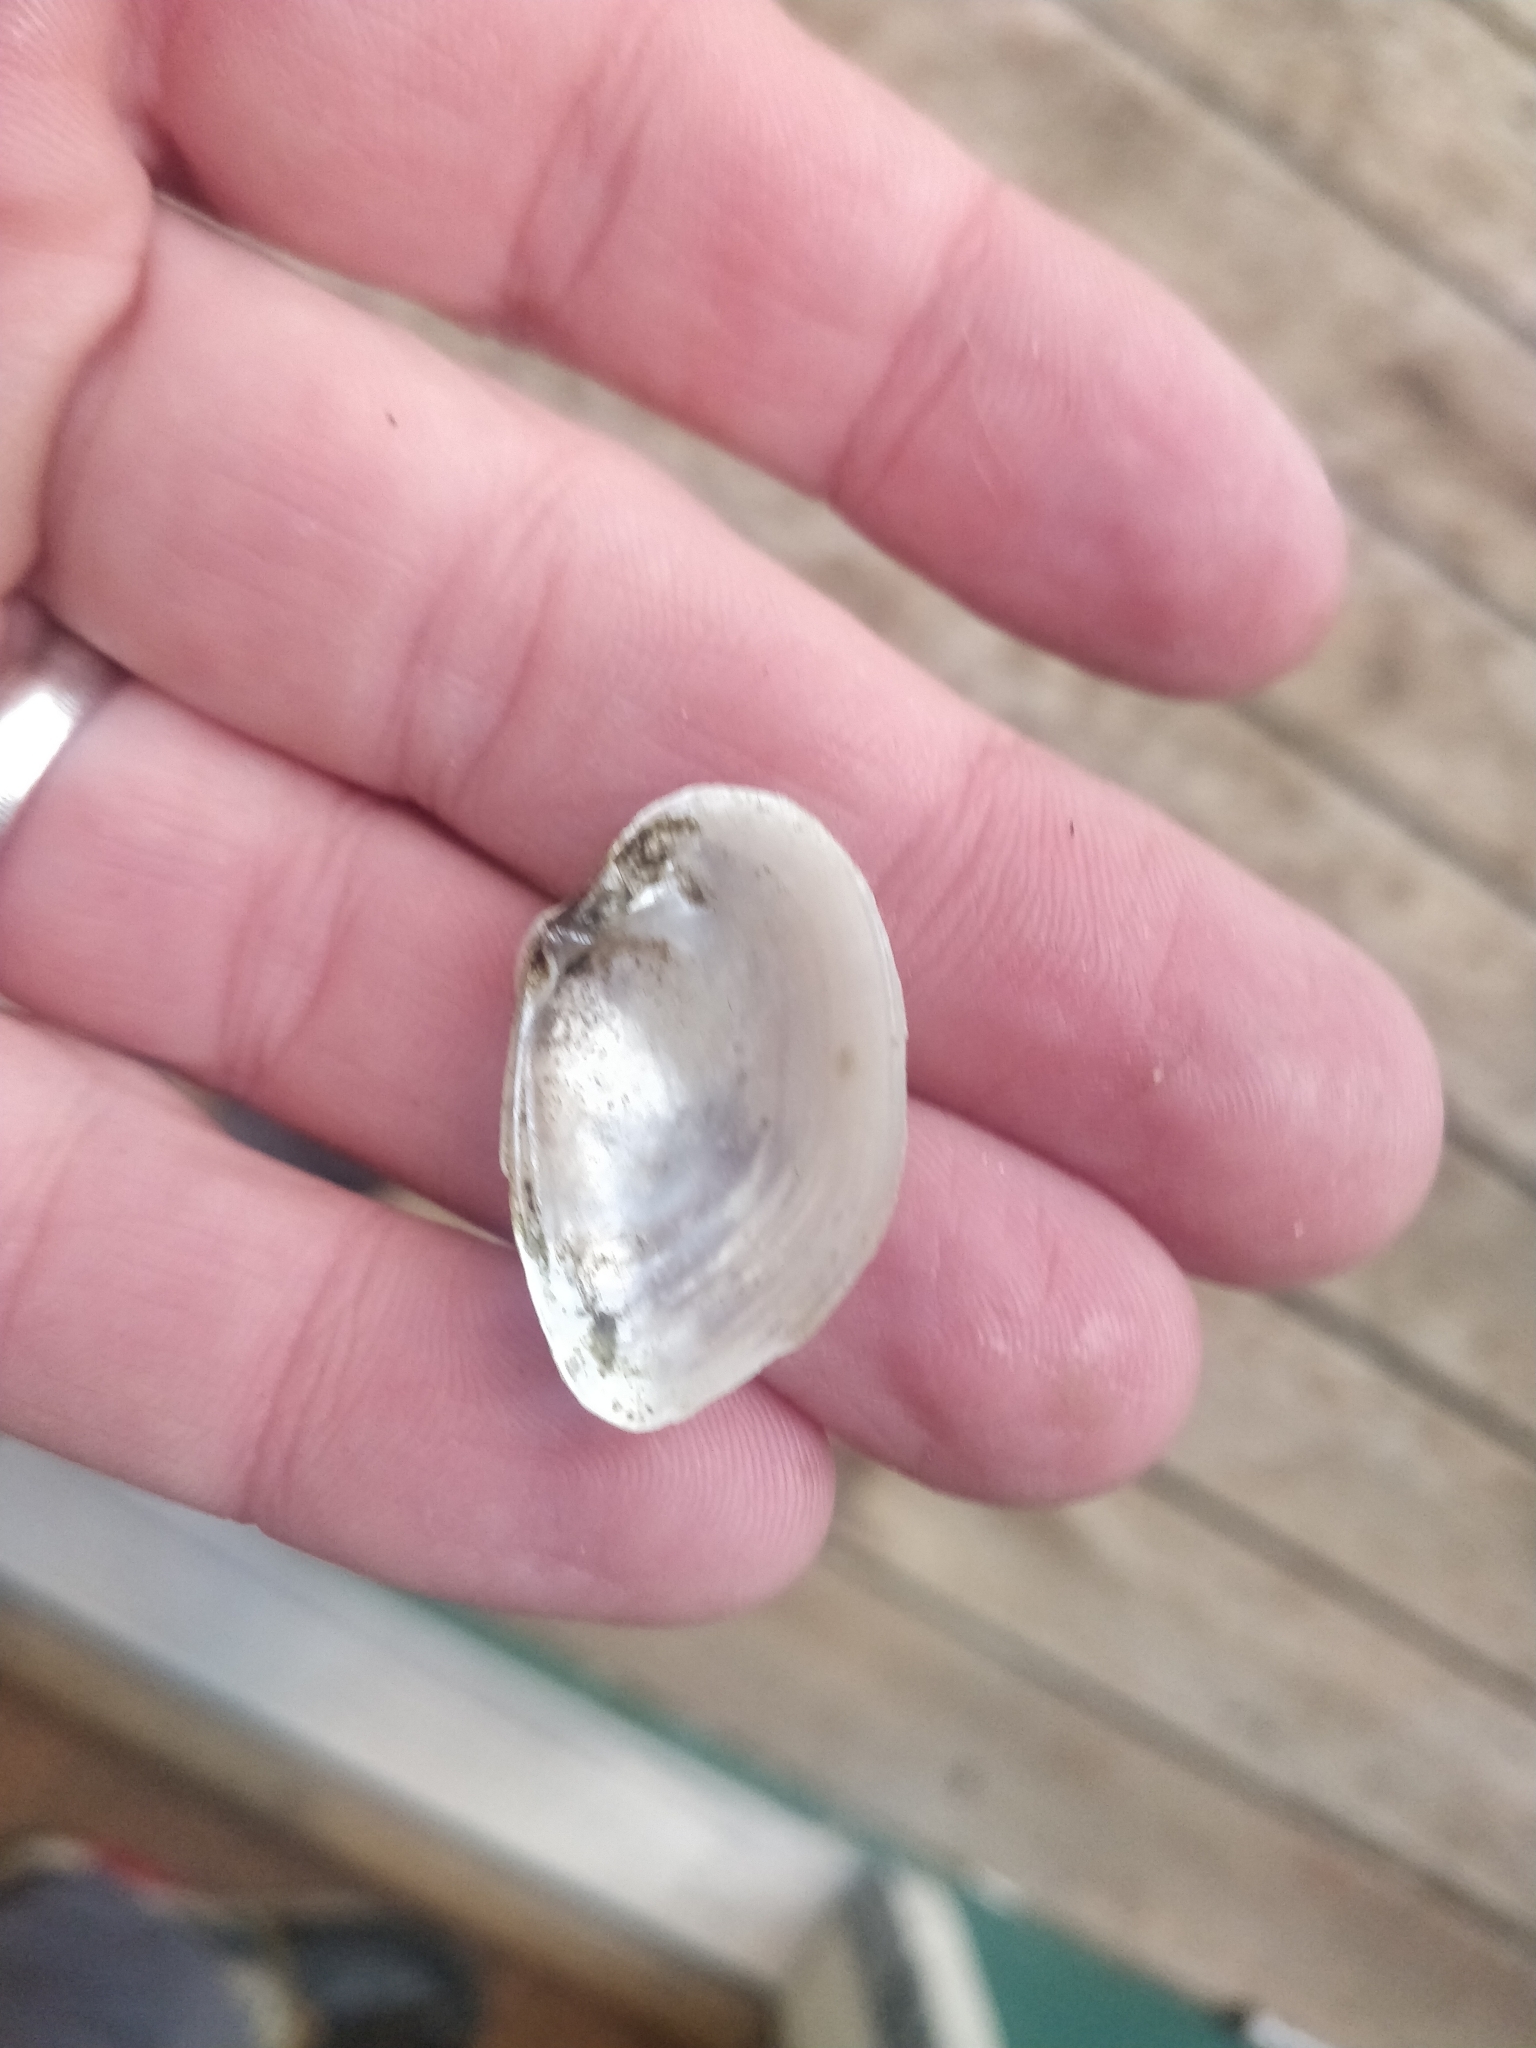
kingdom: Animalia
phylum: Mollusca
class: Bivalvia
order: Unionida
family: Unionidae
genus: Truncilla
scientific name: Truncilla donaciformis
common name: Fawnsfoot
